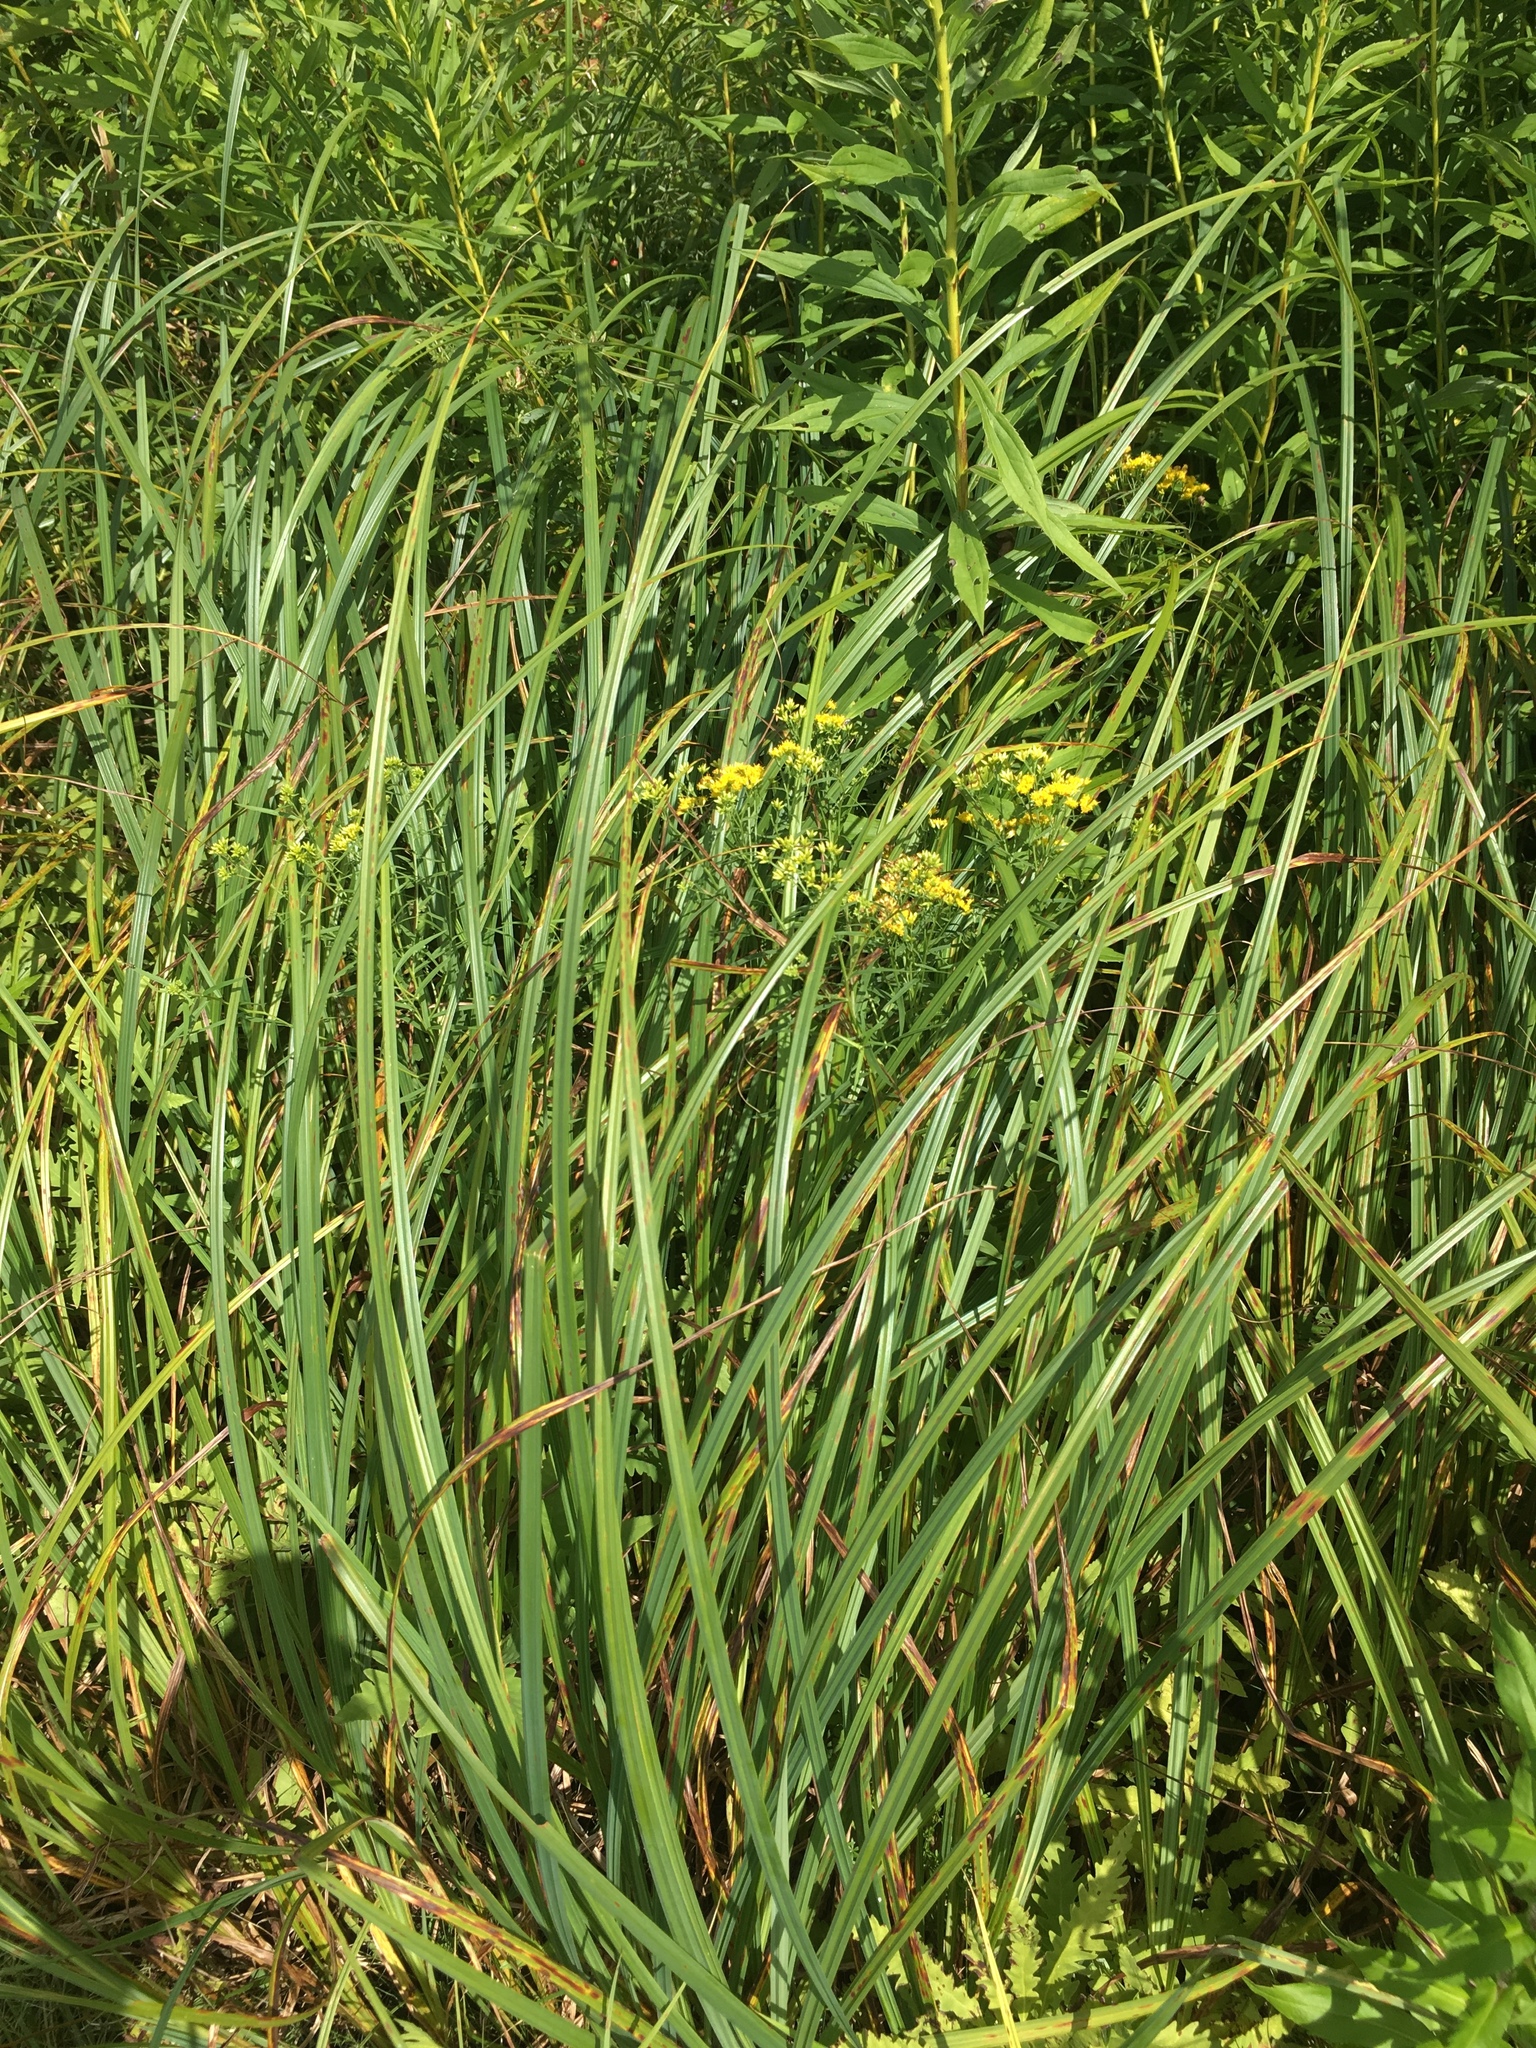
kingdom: Plantae
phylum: Tracheophyta
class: Magnoliopsida
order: Asterales
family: Asteraceae
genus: Euthamia
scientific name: Euthamia graminifolia
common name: Common goldentop
